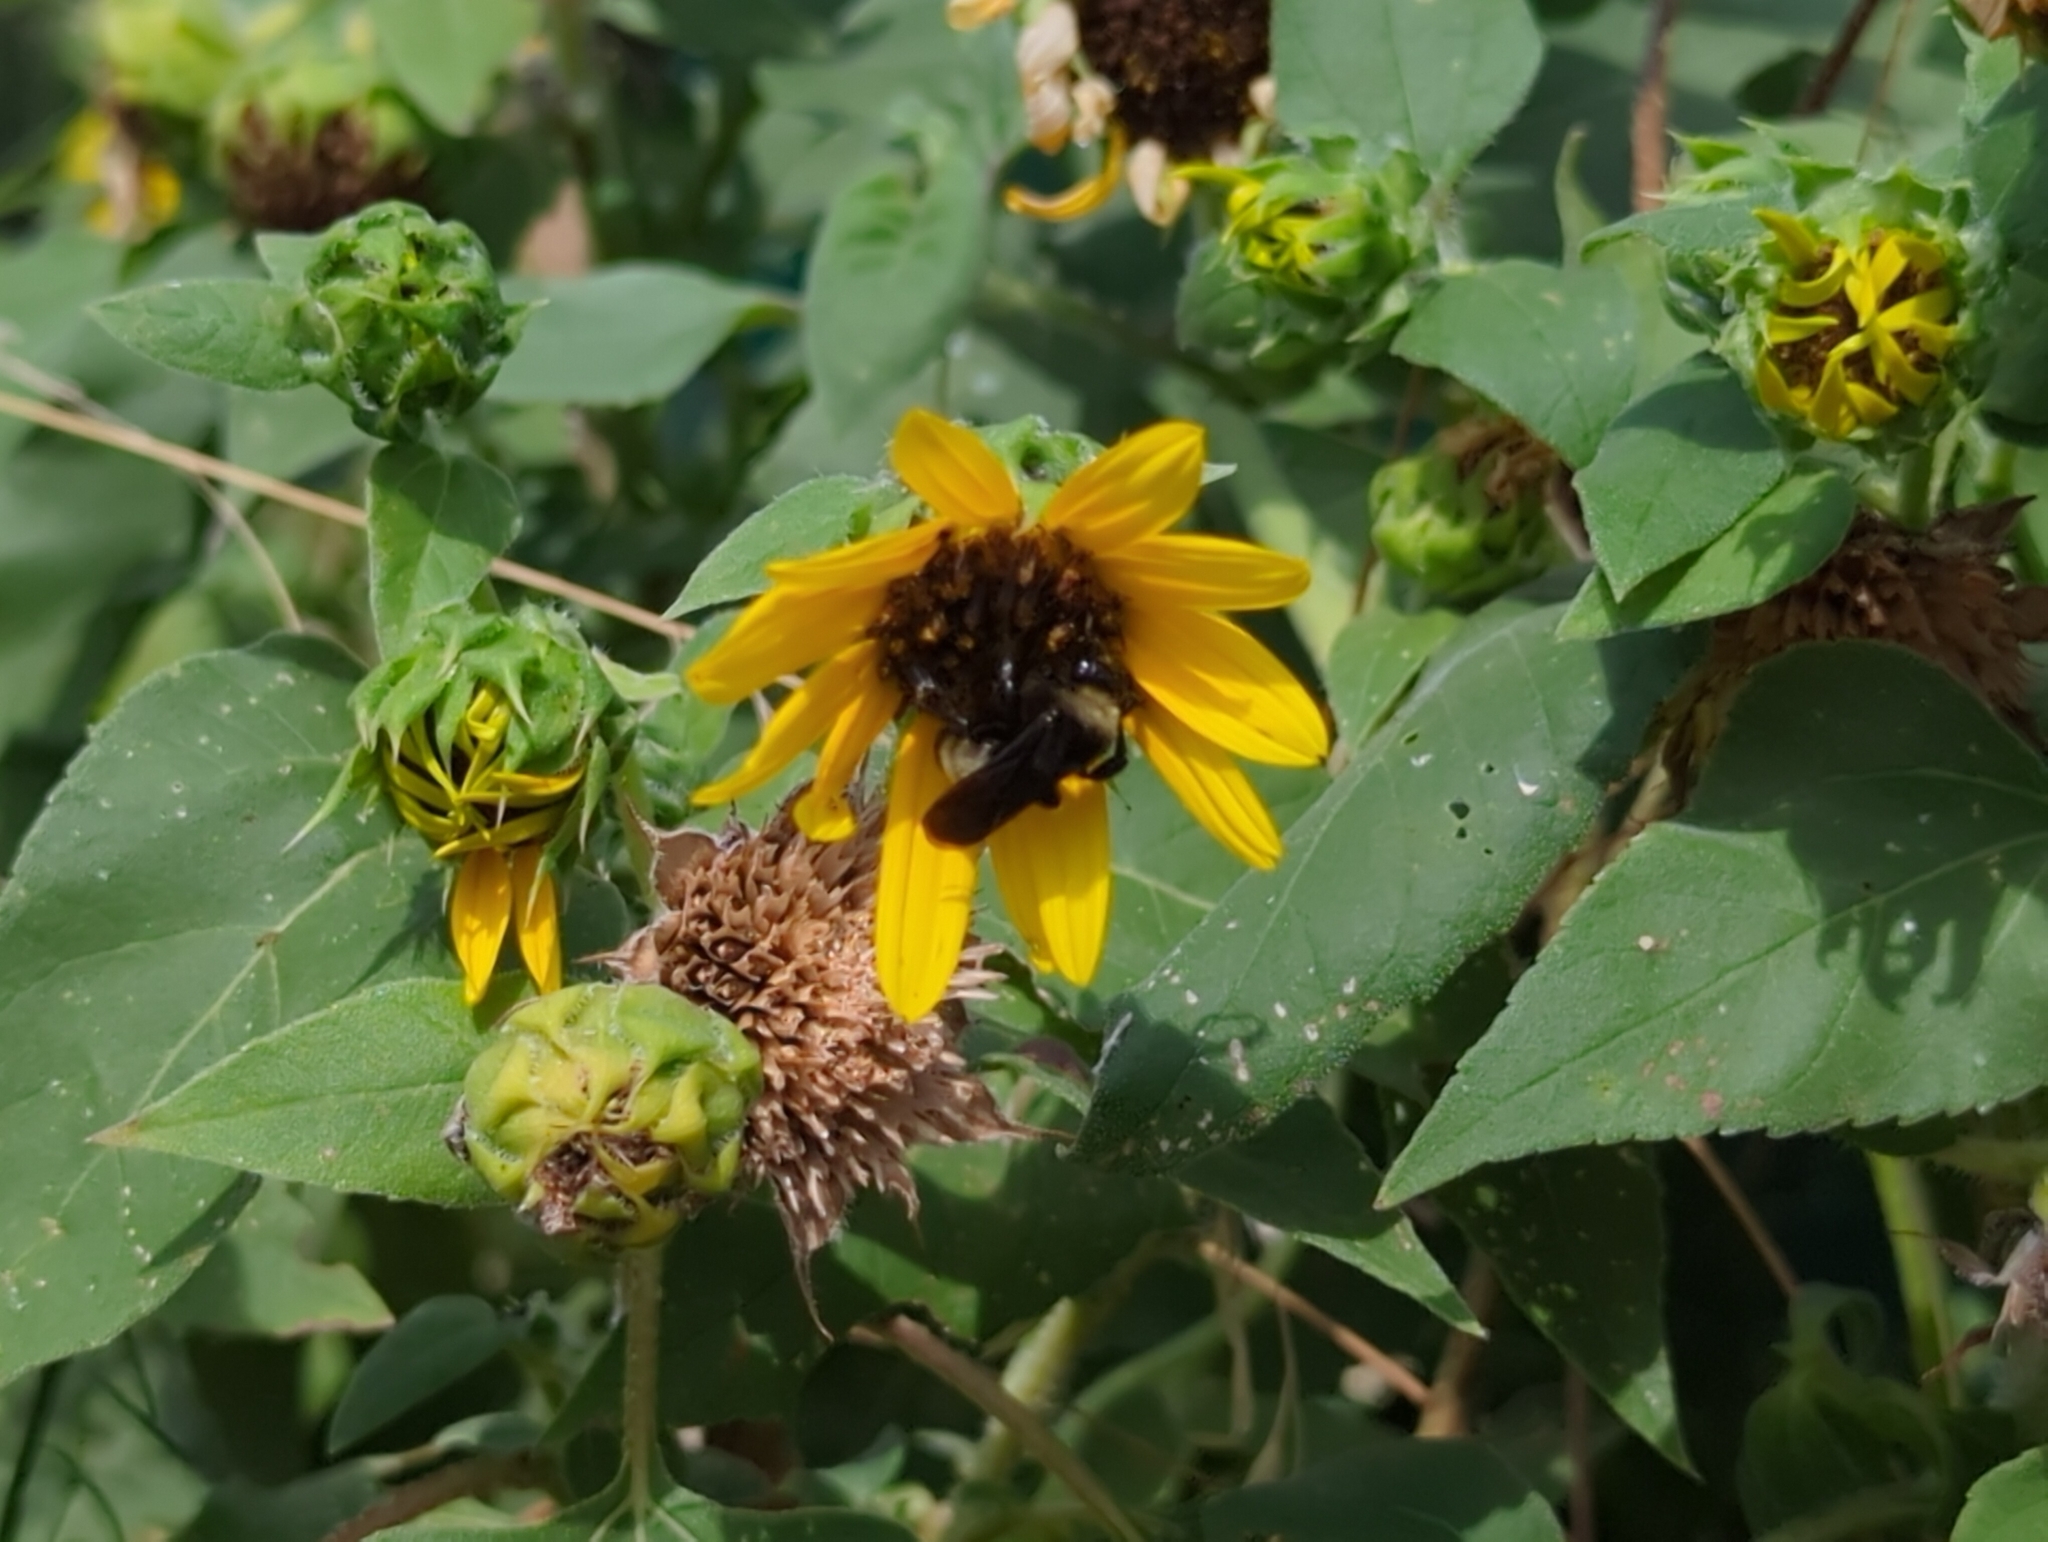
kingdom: Animalia
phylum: Arthropoda
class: Insecta
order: Hymenoptera
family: Apidae
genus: Bombus
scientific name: Bombus pensylvanicus
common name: Bumble bee
